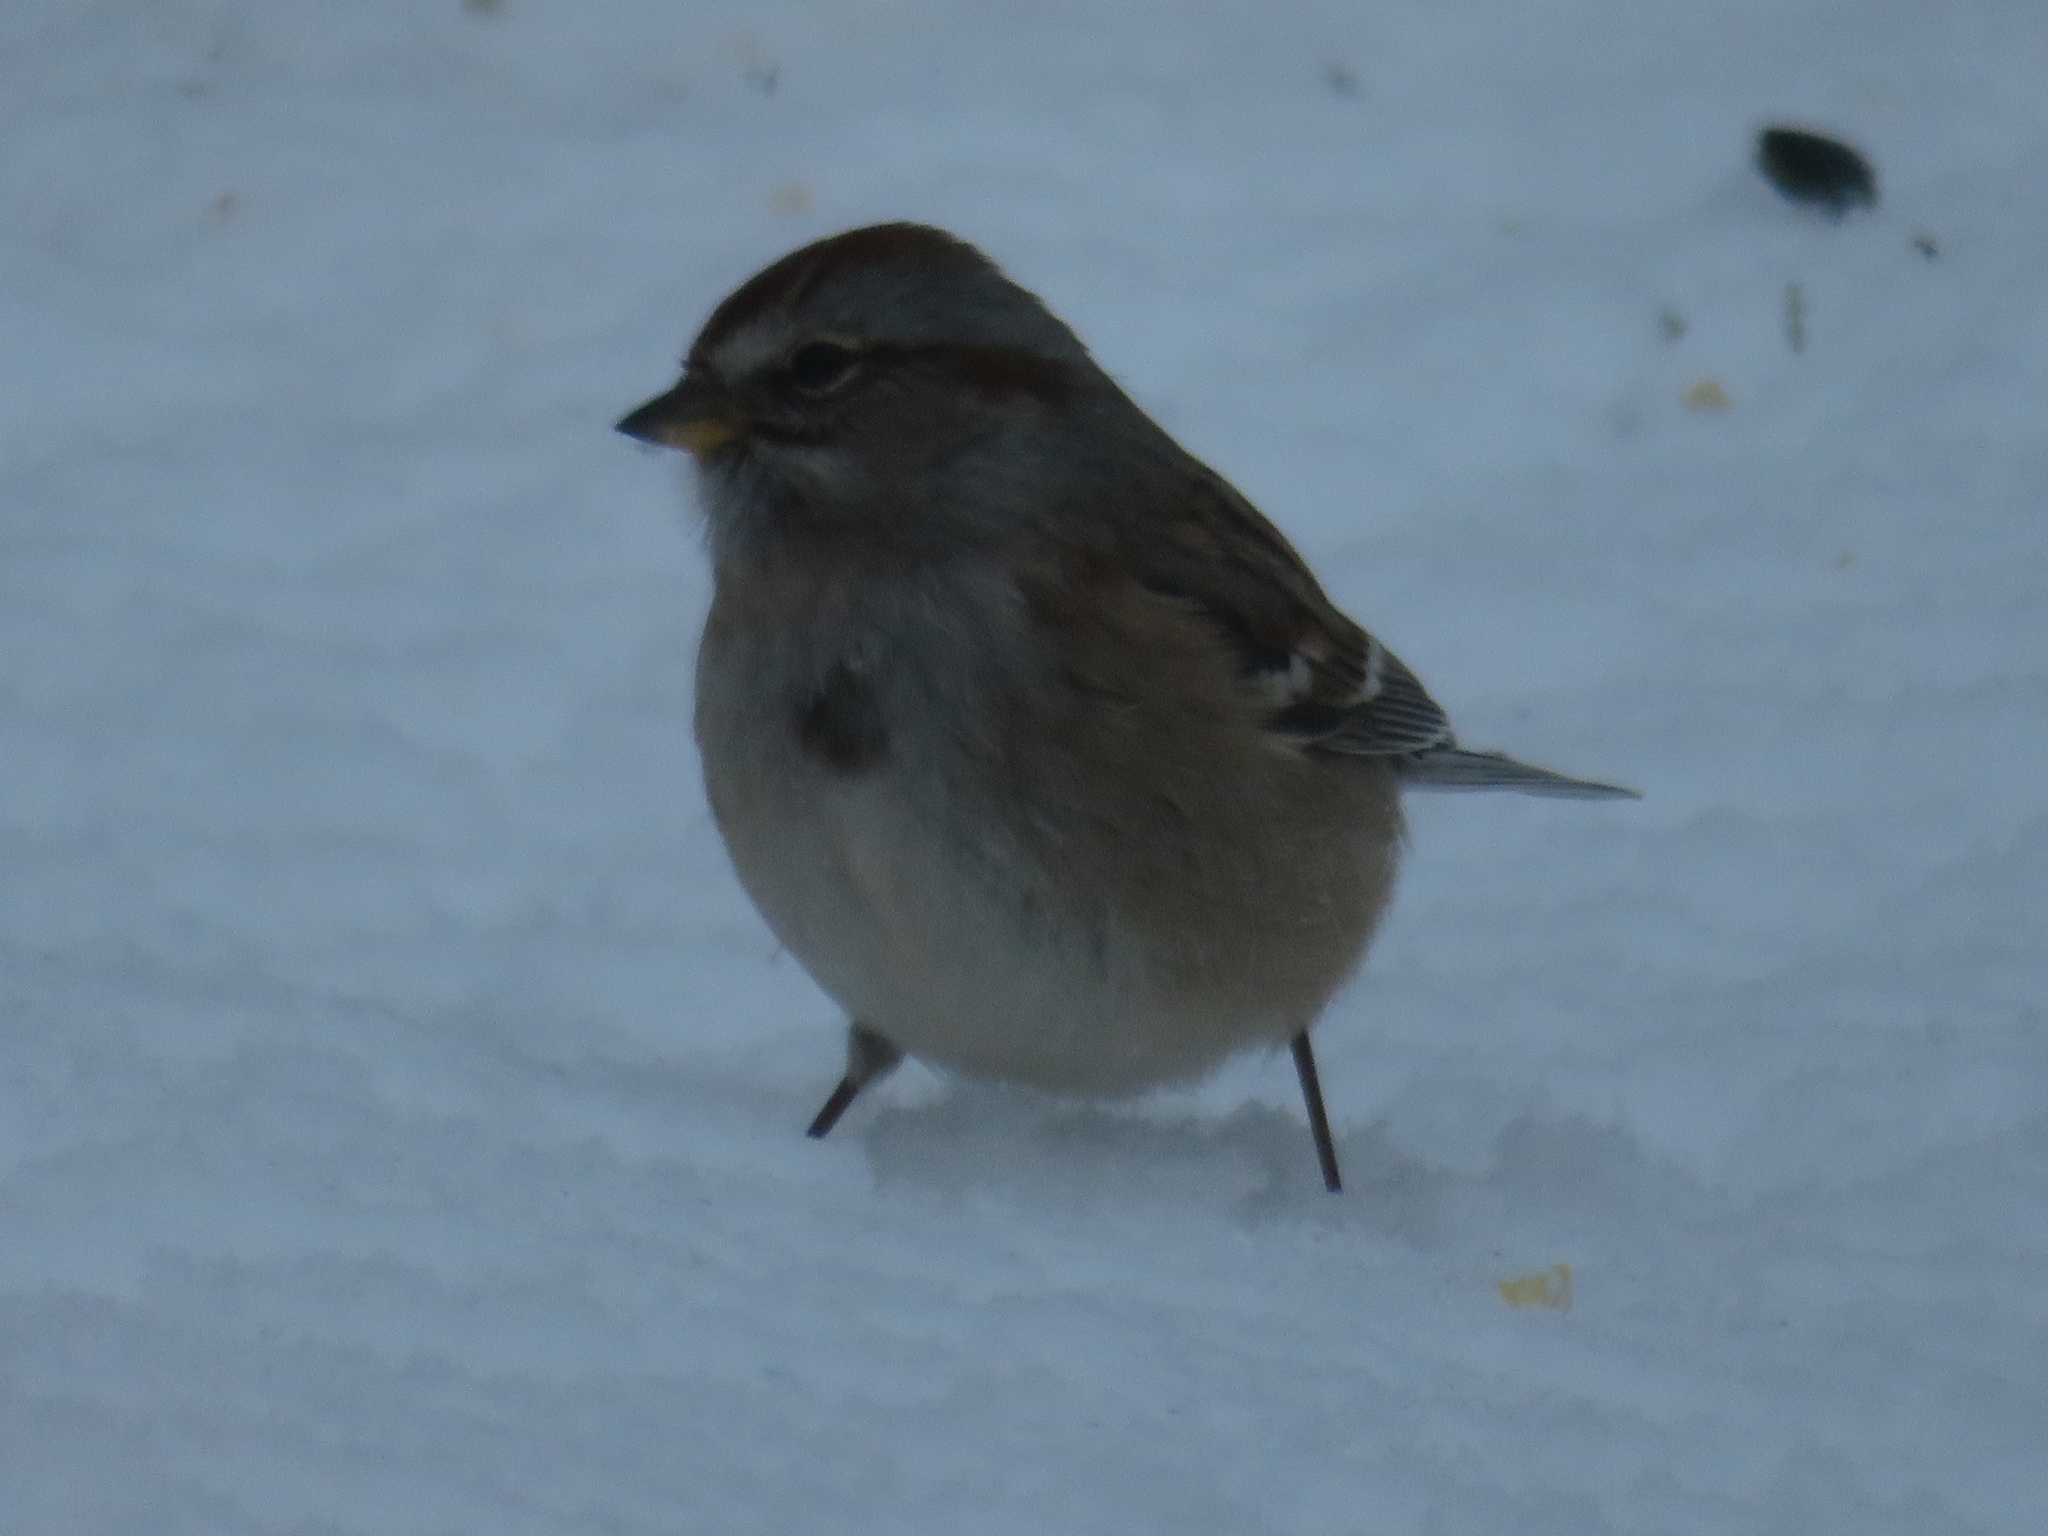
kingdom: Animalia
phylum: Chordata
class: Aves
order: Passeriformes
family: Passerellidae
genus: Spizelloides
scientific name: Spizelloides arborea
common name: American tree sparrow
